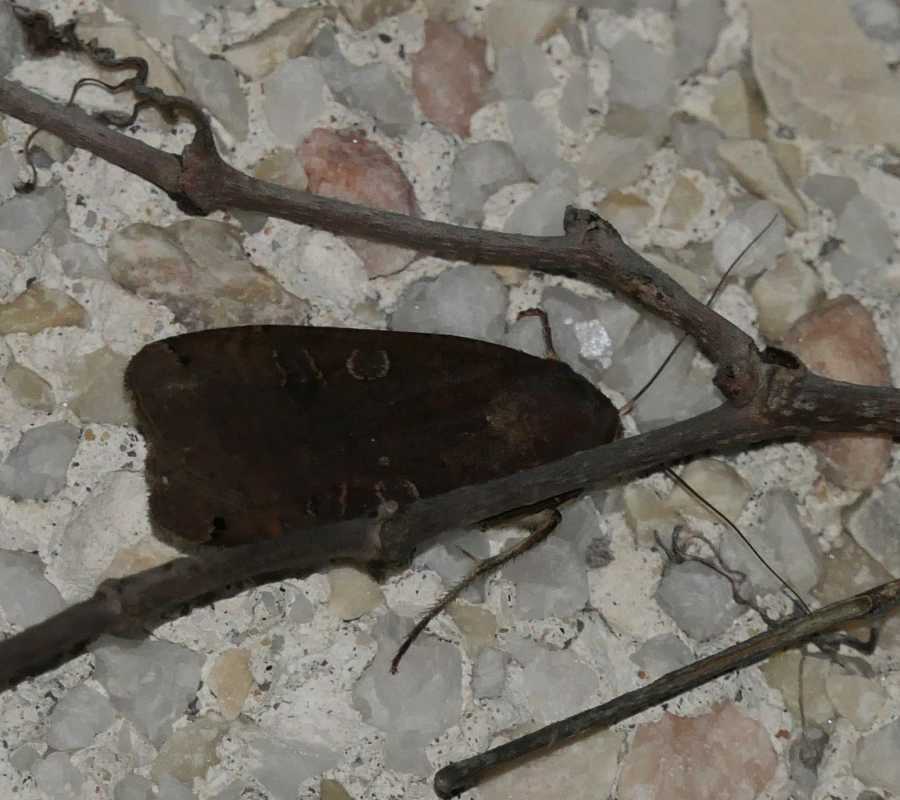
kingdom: Animalia
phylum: Arthropoda
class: Insecta
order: Lepidoptera
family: Noctuidae
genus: Noctua
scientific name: Noctua pronuba
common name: Large yellow underwing
